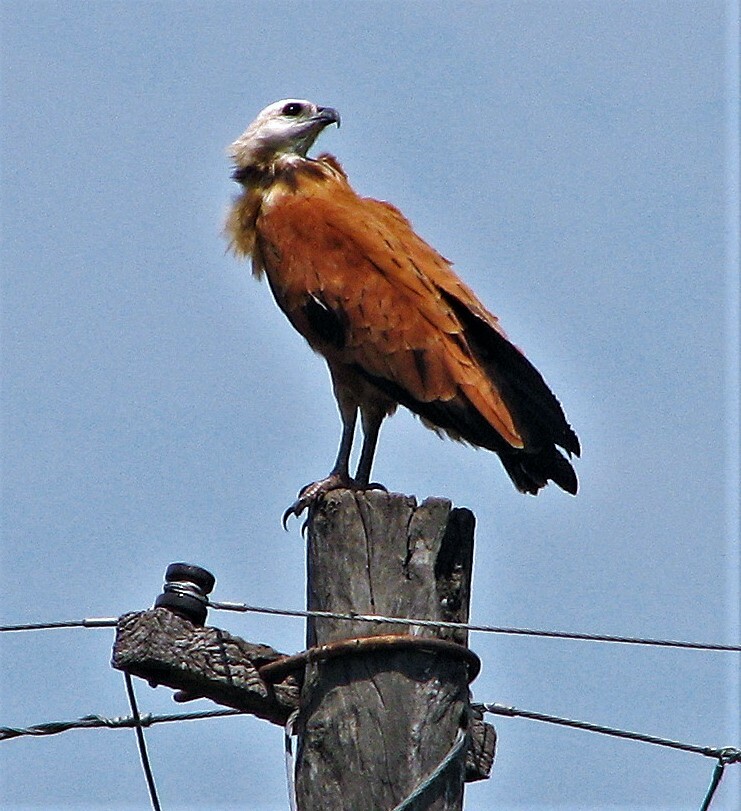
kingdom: Animalia
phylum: Chordata
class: Aves
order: Accipitriformes
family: Accipitridae
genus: Busarellus
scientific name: Busarellus nigricollis
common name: Black-collared hawk
